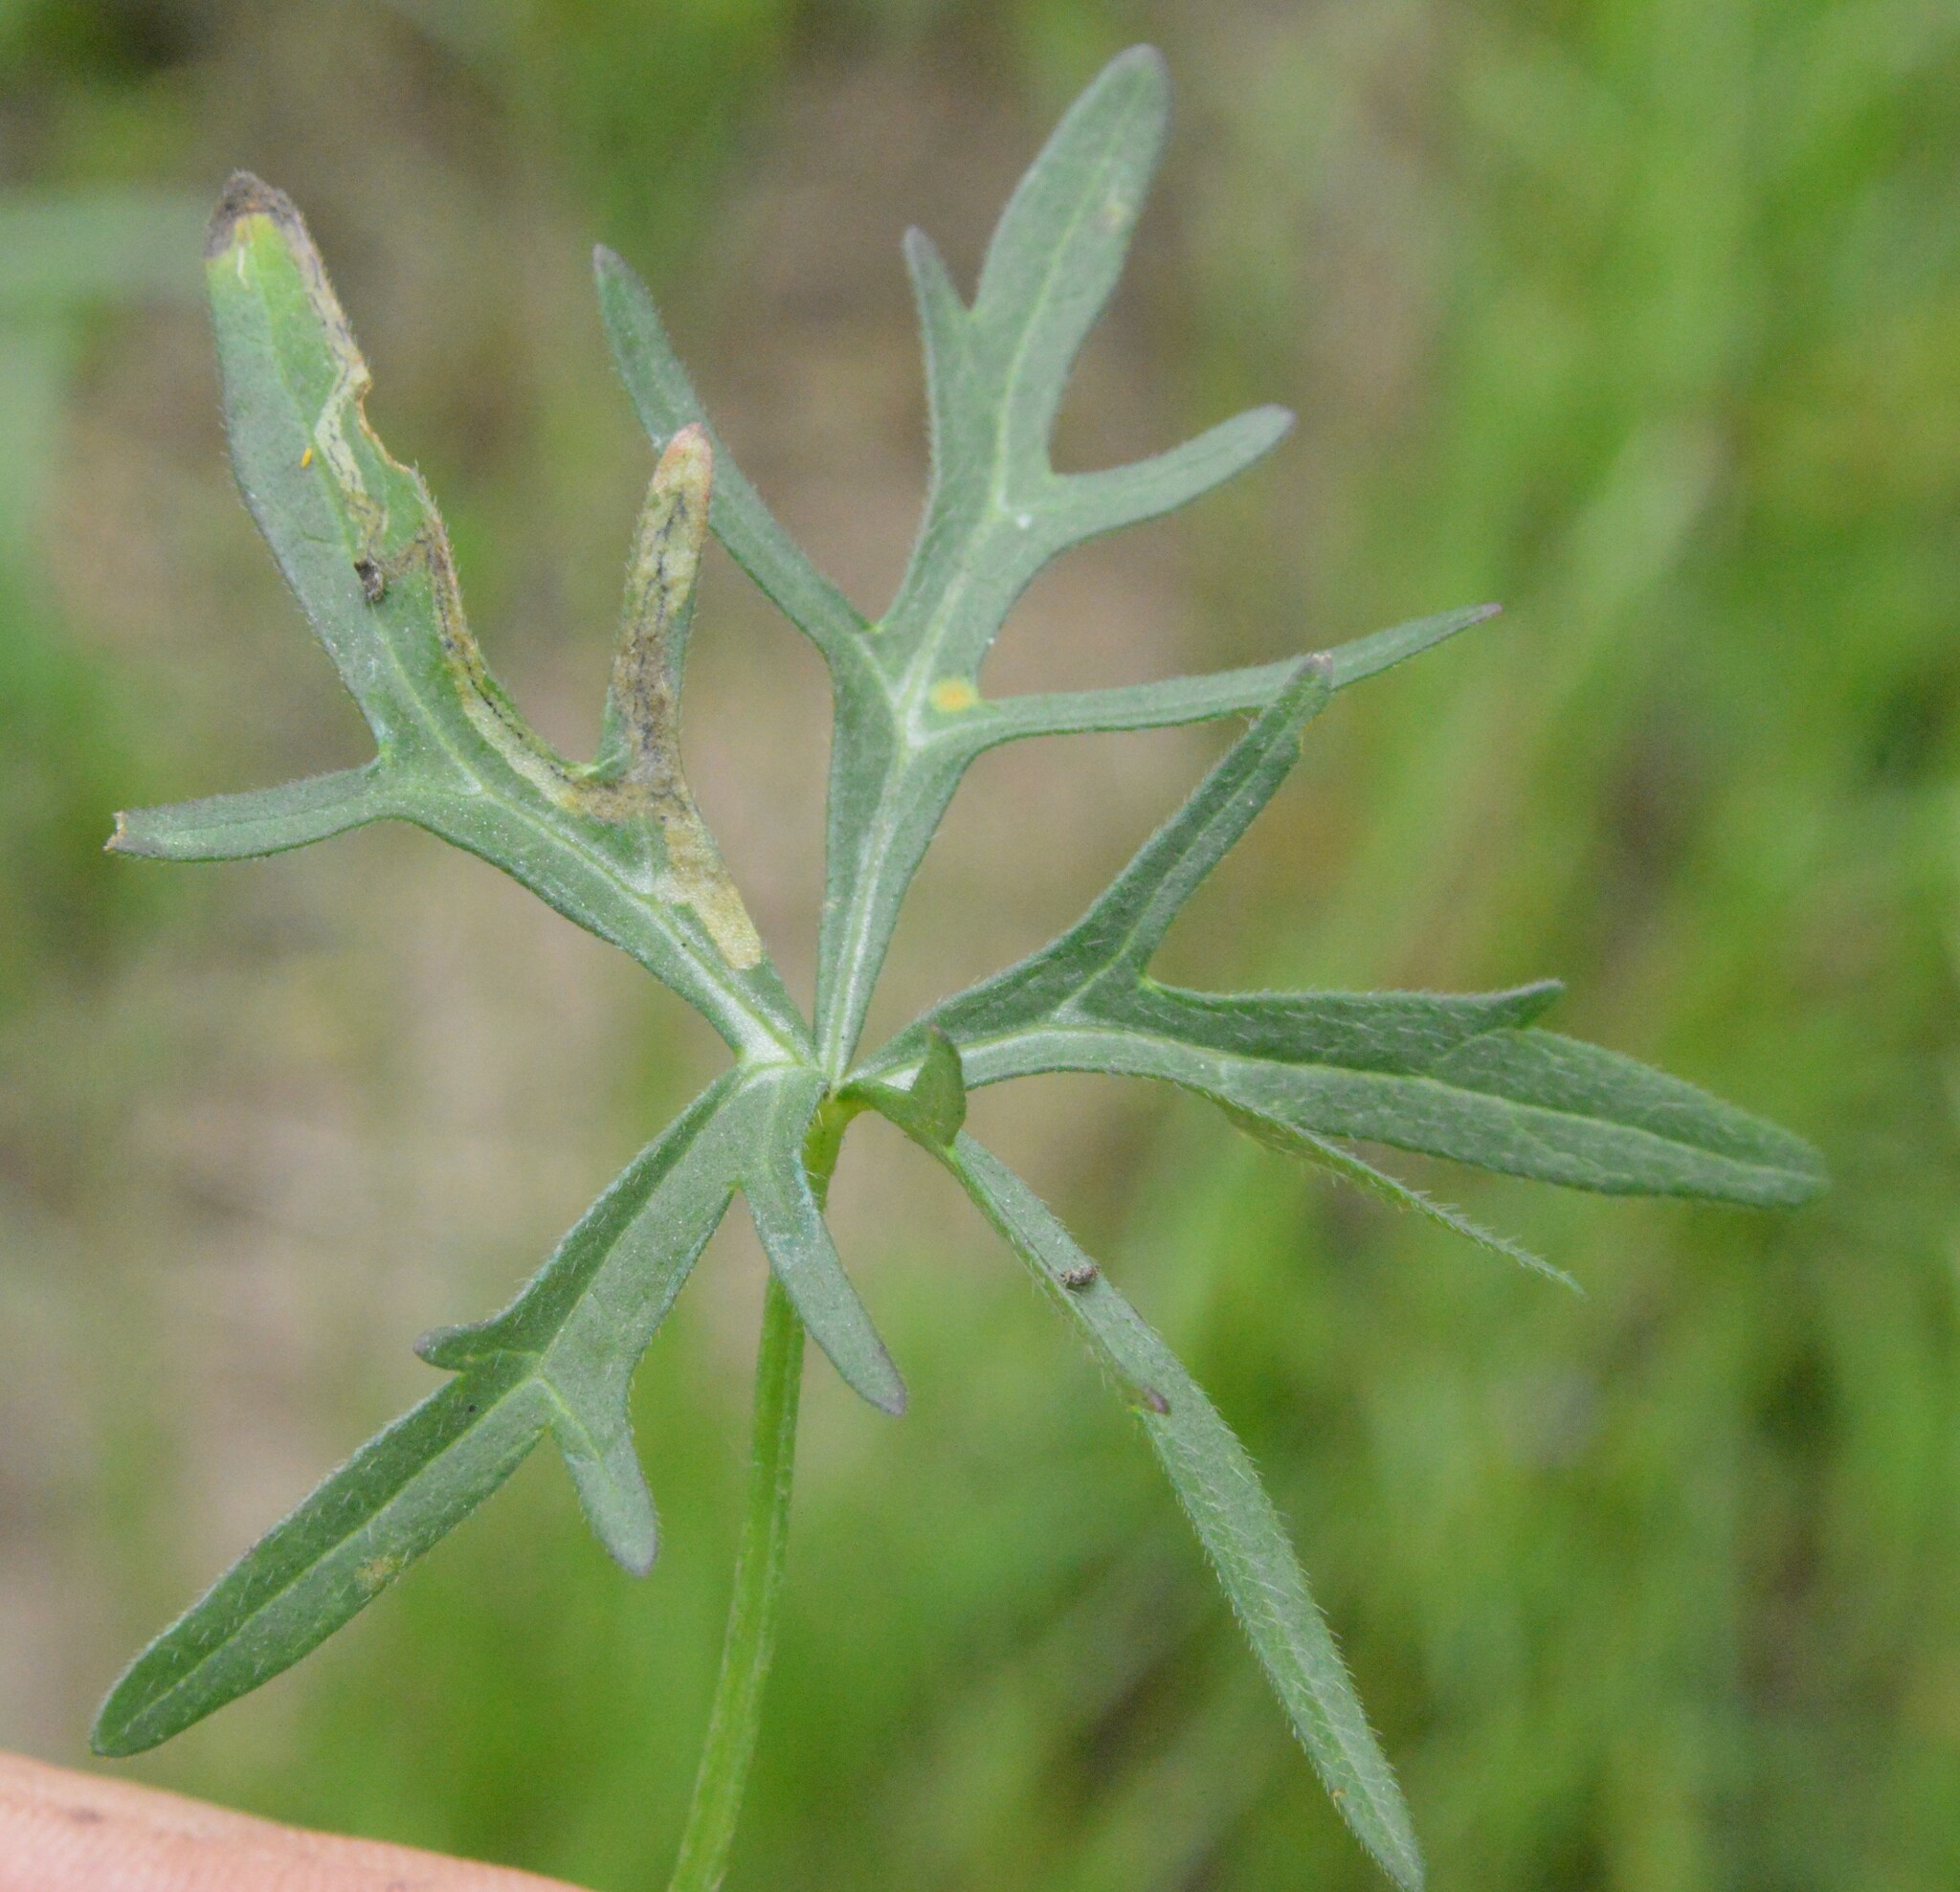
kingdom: Plantae
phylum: Tracheophyta
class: Magnoliopsida
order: Malvales
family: Malvaceae
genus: Callirhoe
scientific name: Callirhoe involucrata
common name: Purple poppy-mallow
